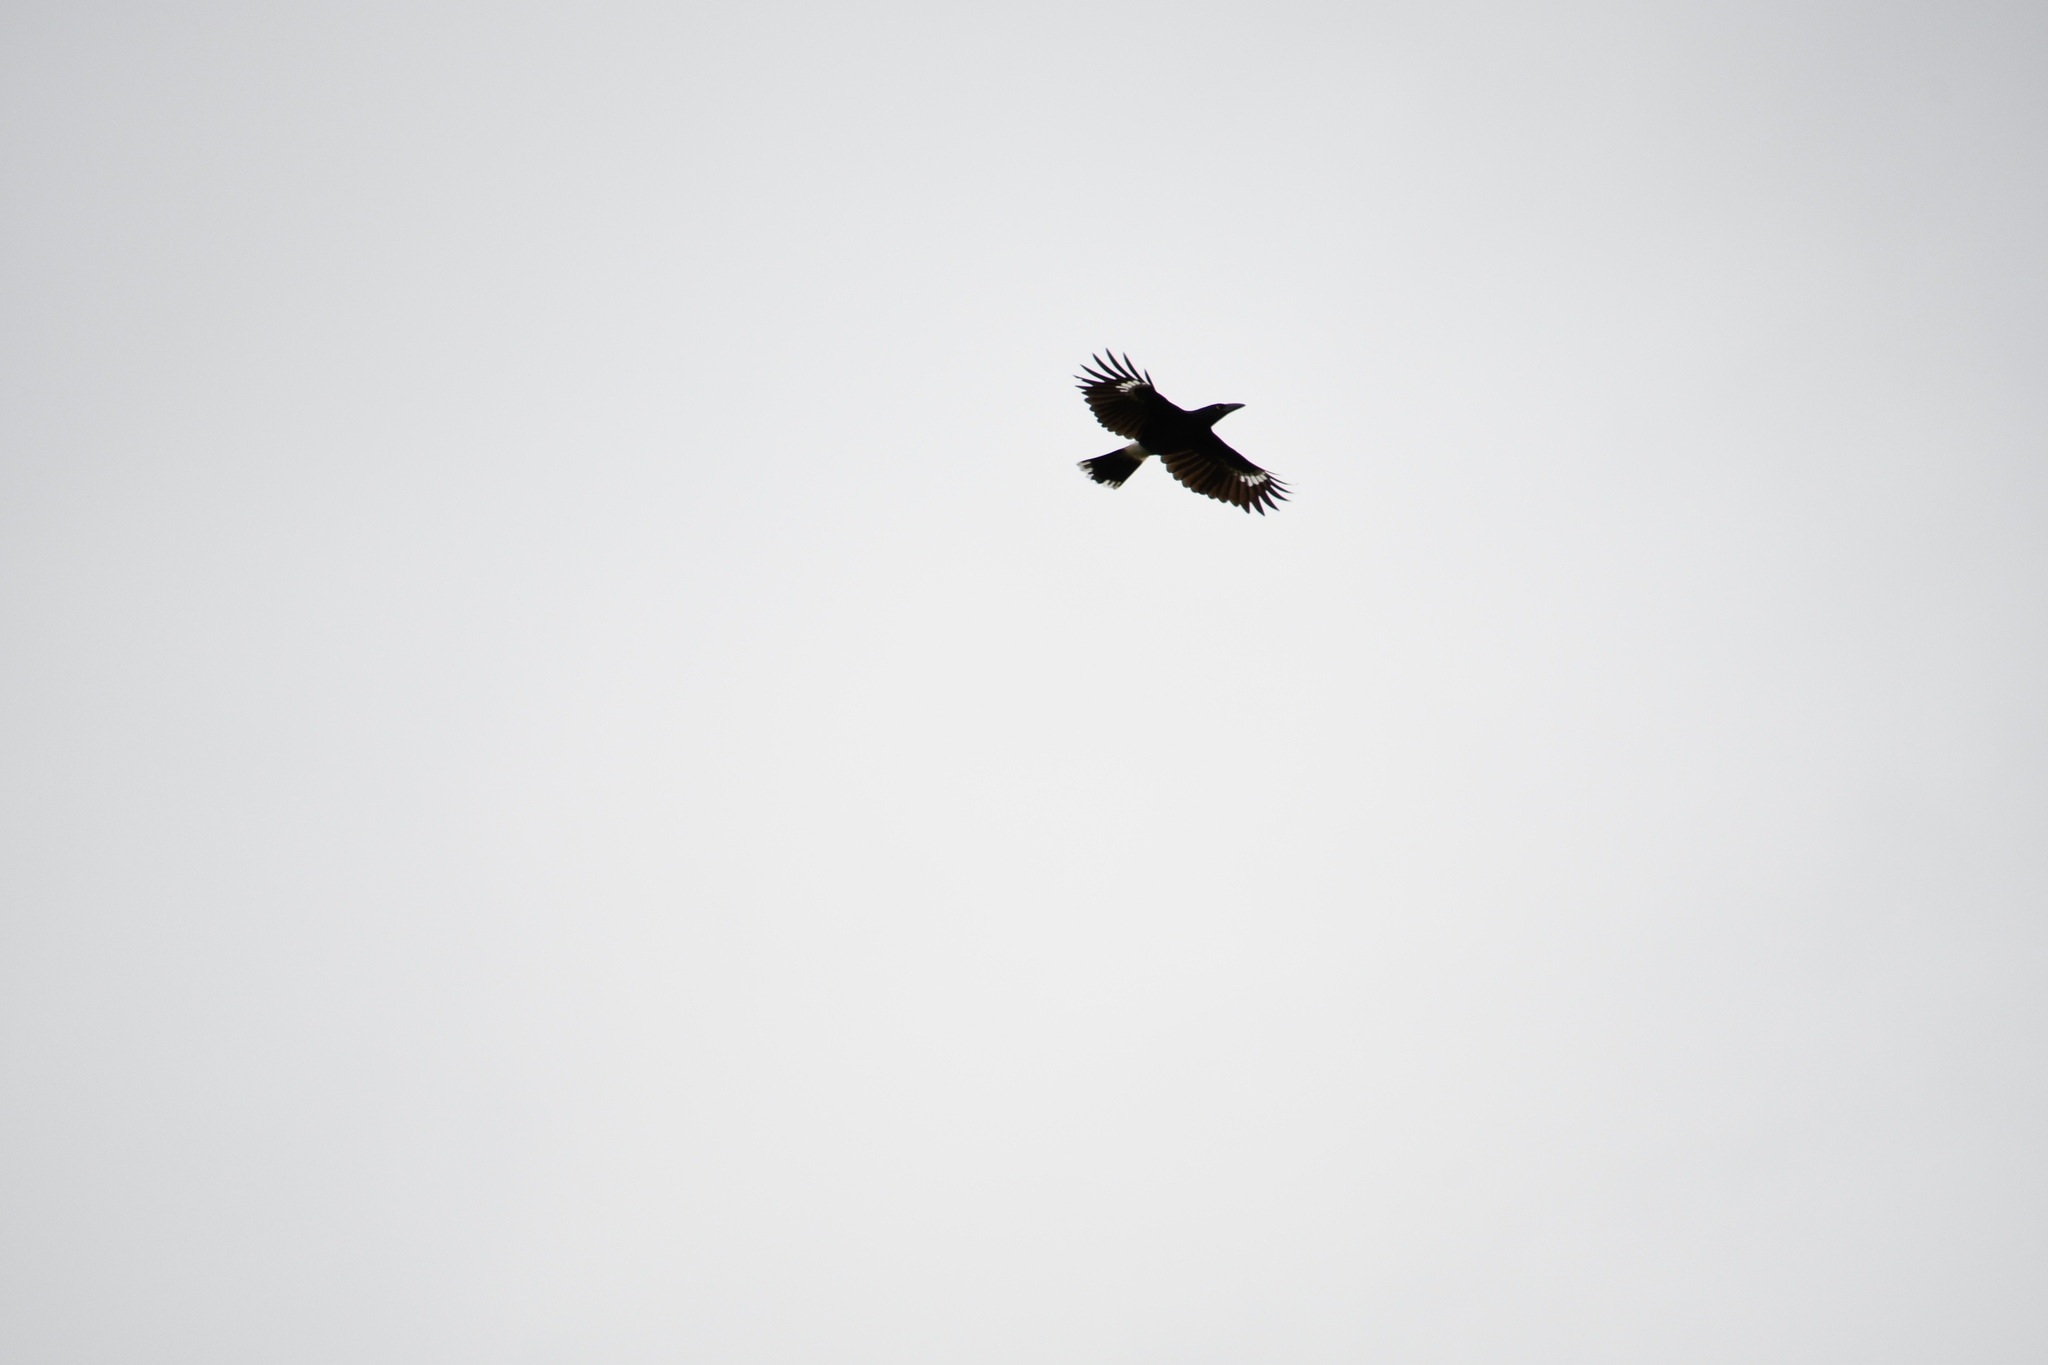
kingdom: Animalia
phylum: Chordata
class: Aves
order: Passeriformes
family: Cracticidae
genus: Strepera
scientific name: Strepera graculina
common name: Pied currawong
